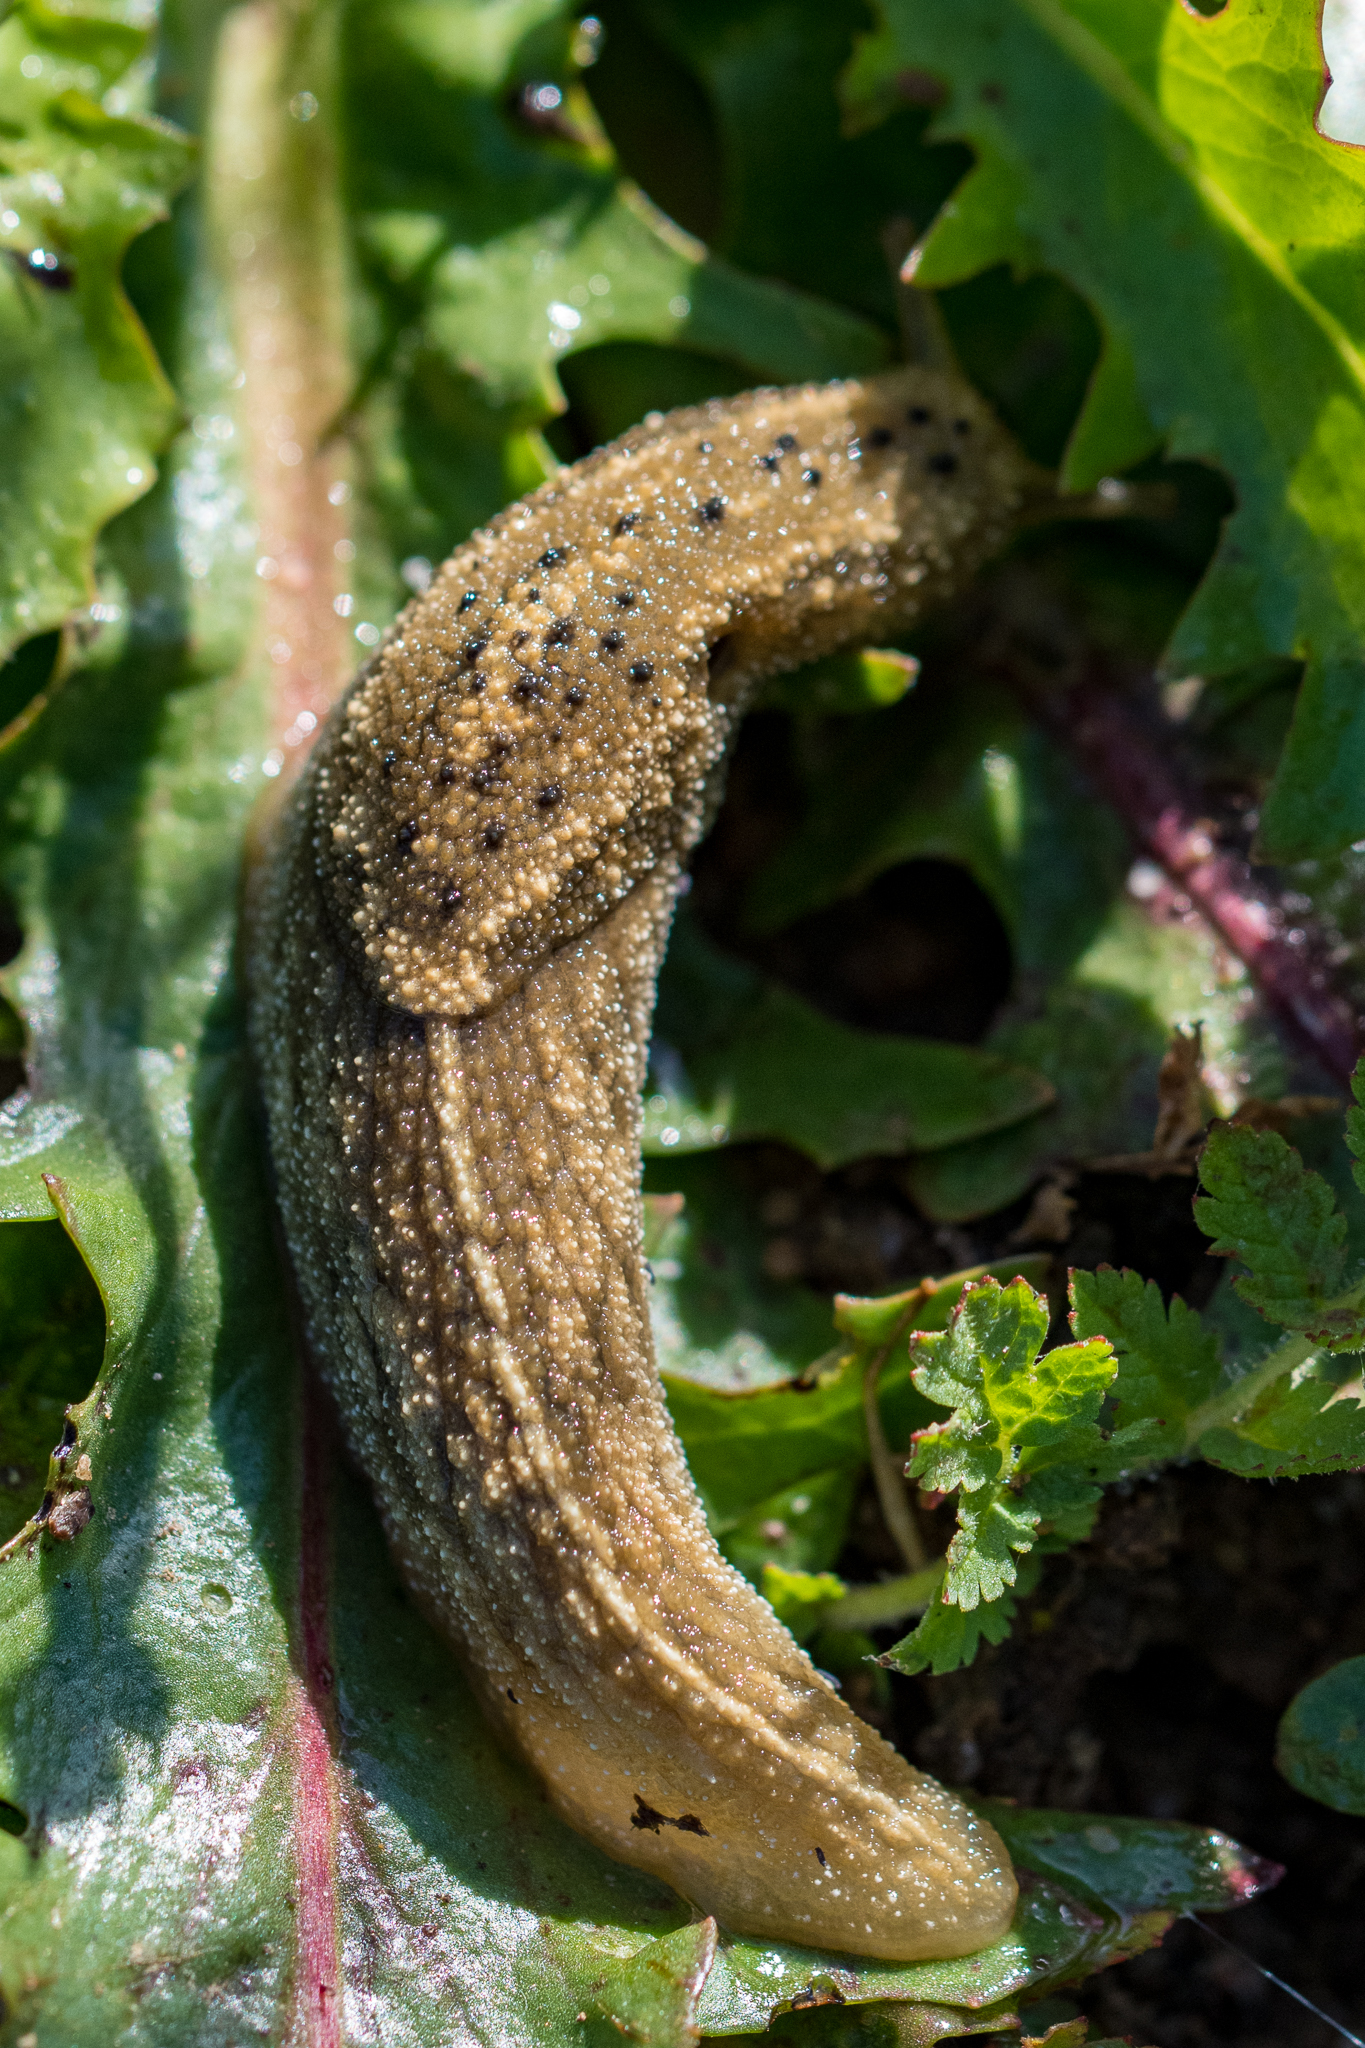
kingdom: Animalia
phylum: Mollusca
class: Gastropoda
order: Stylommatophora
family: Oopeltidae
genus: Oopelta
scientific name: Oopelta nigropunctata
